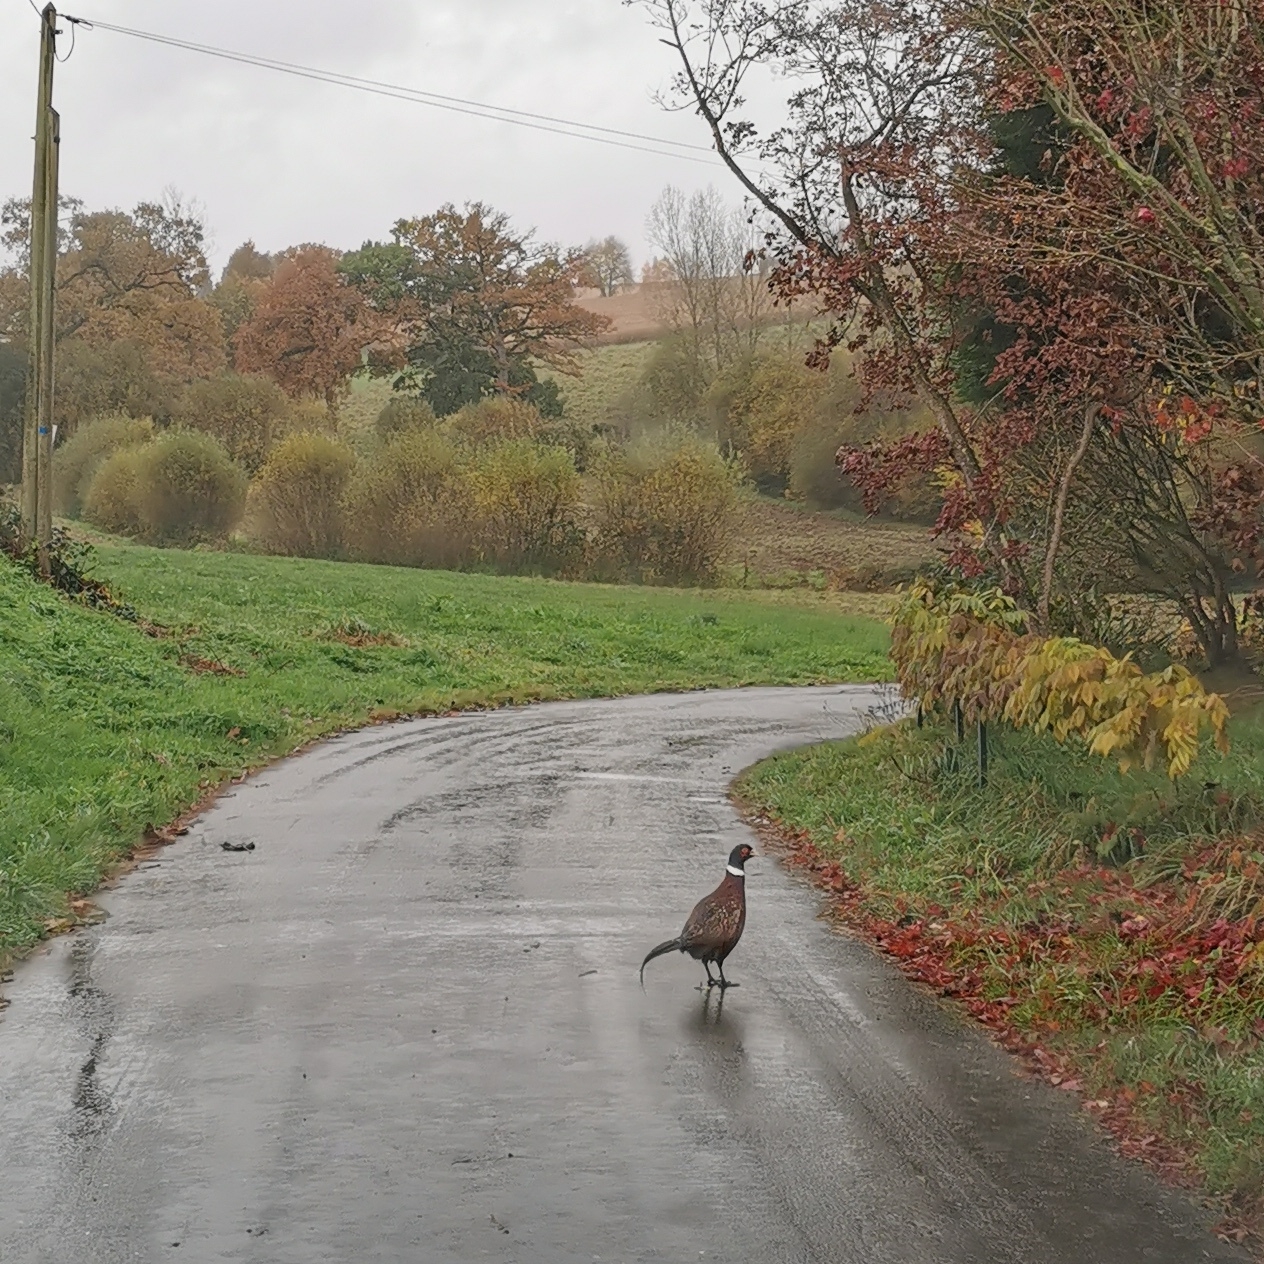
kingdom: Animalia
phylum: Chordata
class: Aves
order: Galliformes
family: Phasianidae
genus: Phasianus
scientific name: Phasianus colchicus
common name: Common pheasant
